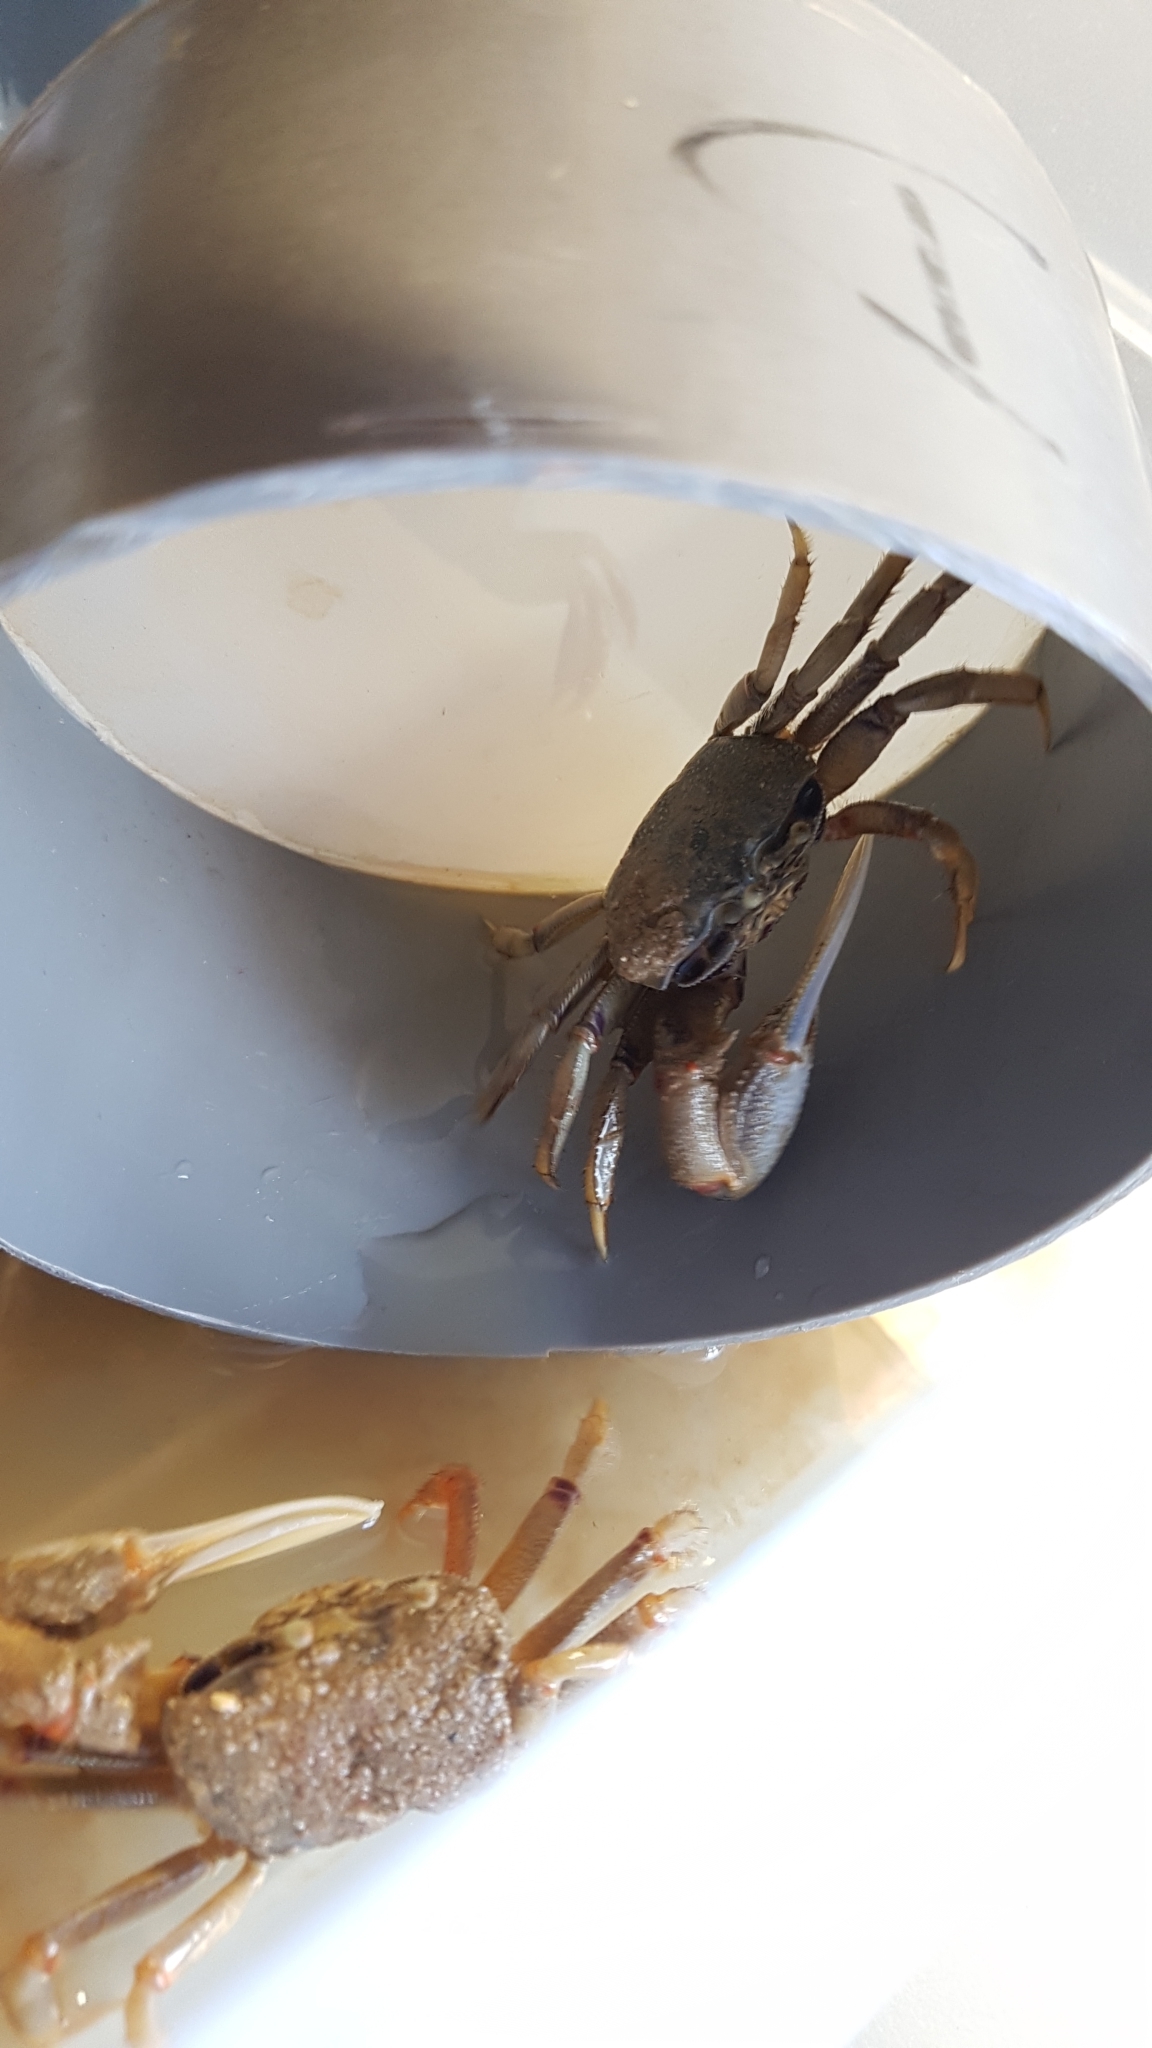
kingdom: Animalia
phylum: Arthropoda
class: Malacostraca
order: Decapoda
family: Ocypodidae
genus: Afruca
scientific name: Afruca tangeri
